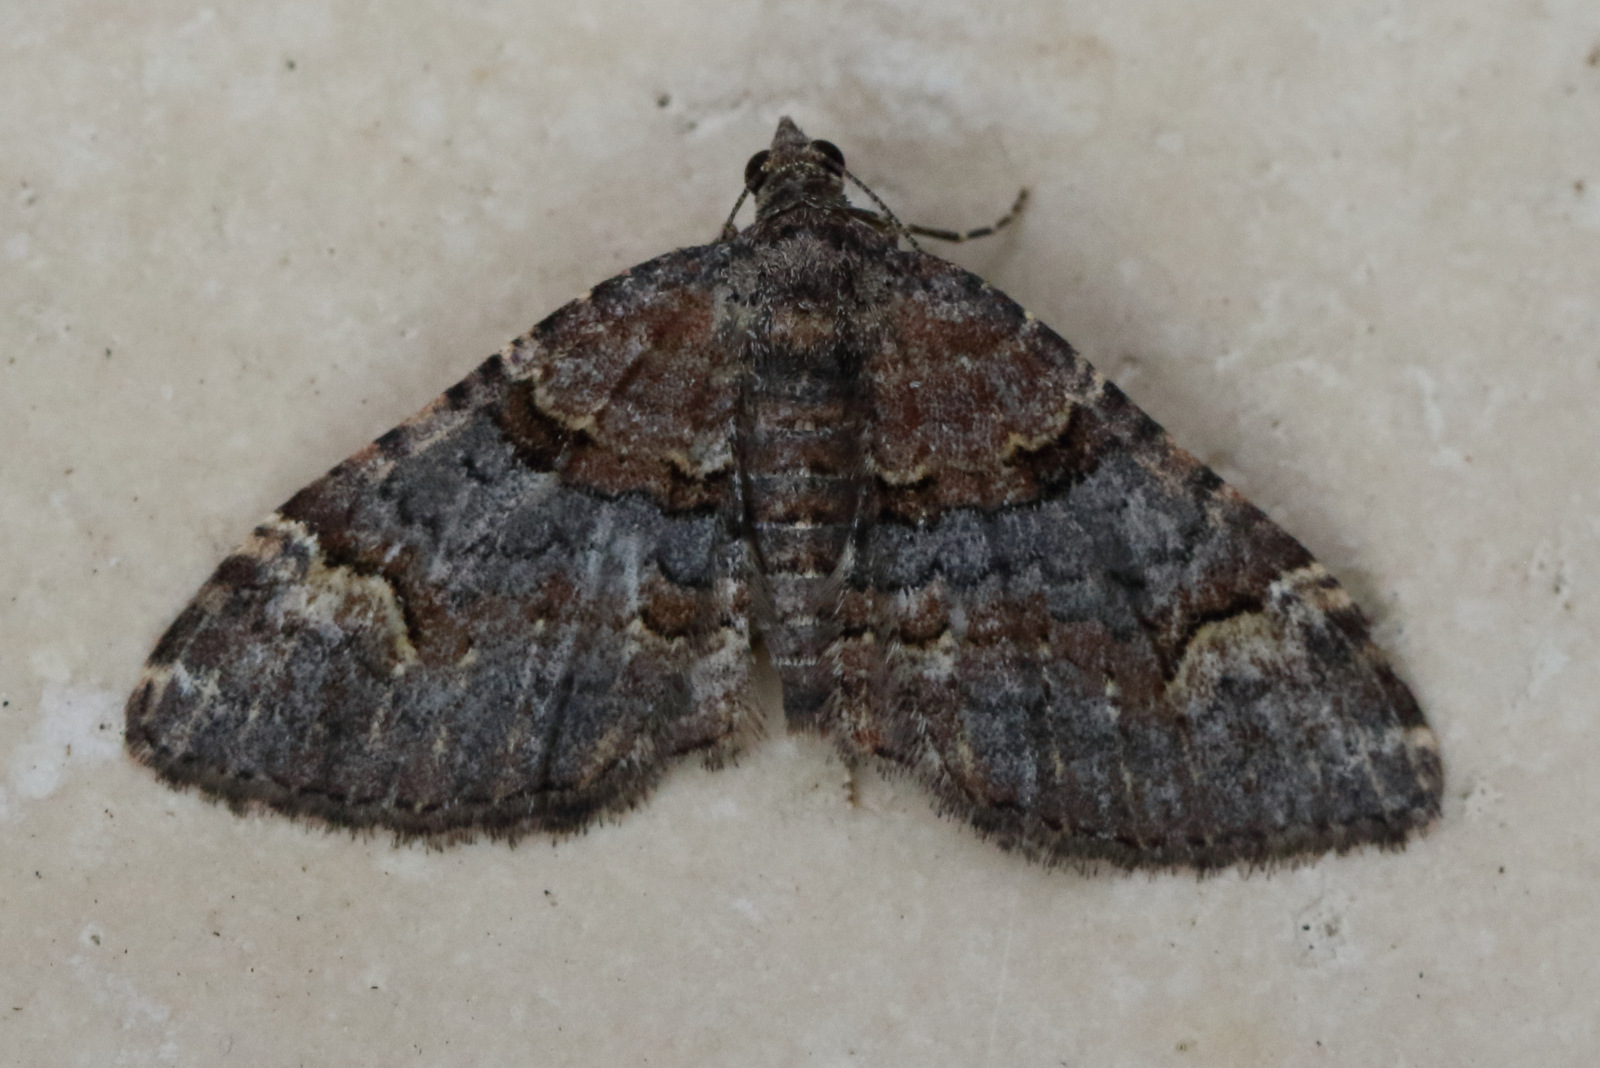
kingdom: Animalia
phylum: Arthropoda
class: Insecta
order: Lepidoptera
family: Geometridae
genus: Epyaxa
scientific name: Epyaxa sodaliata
